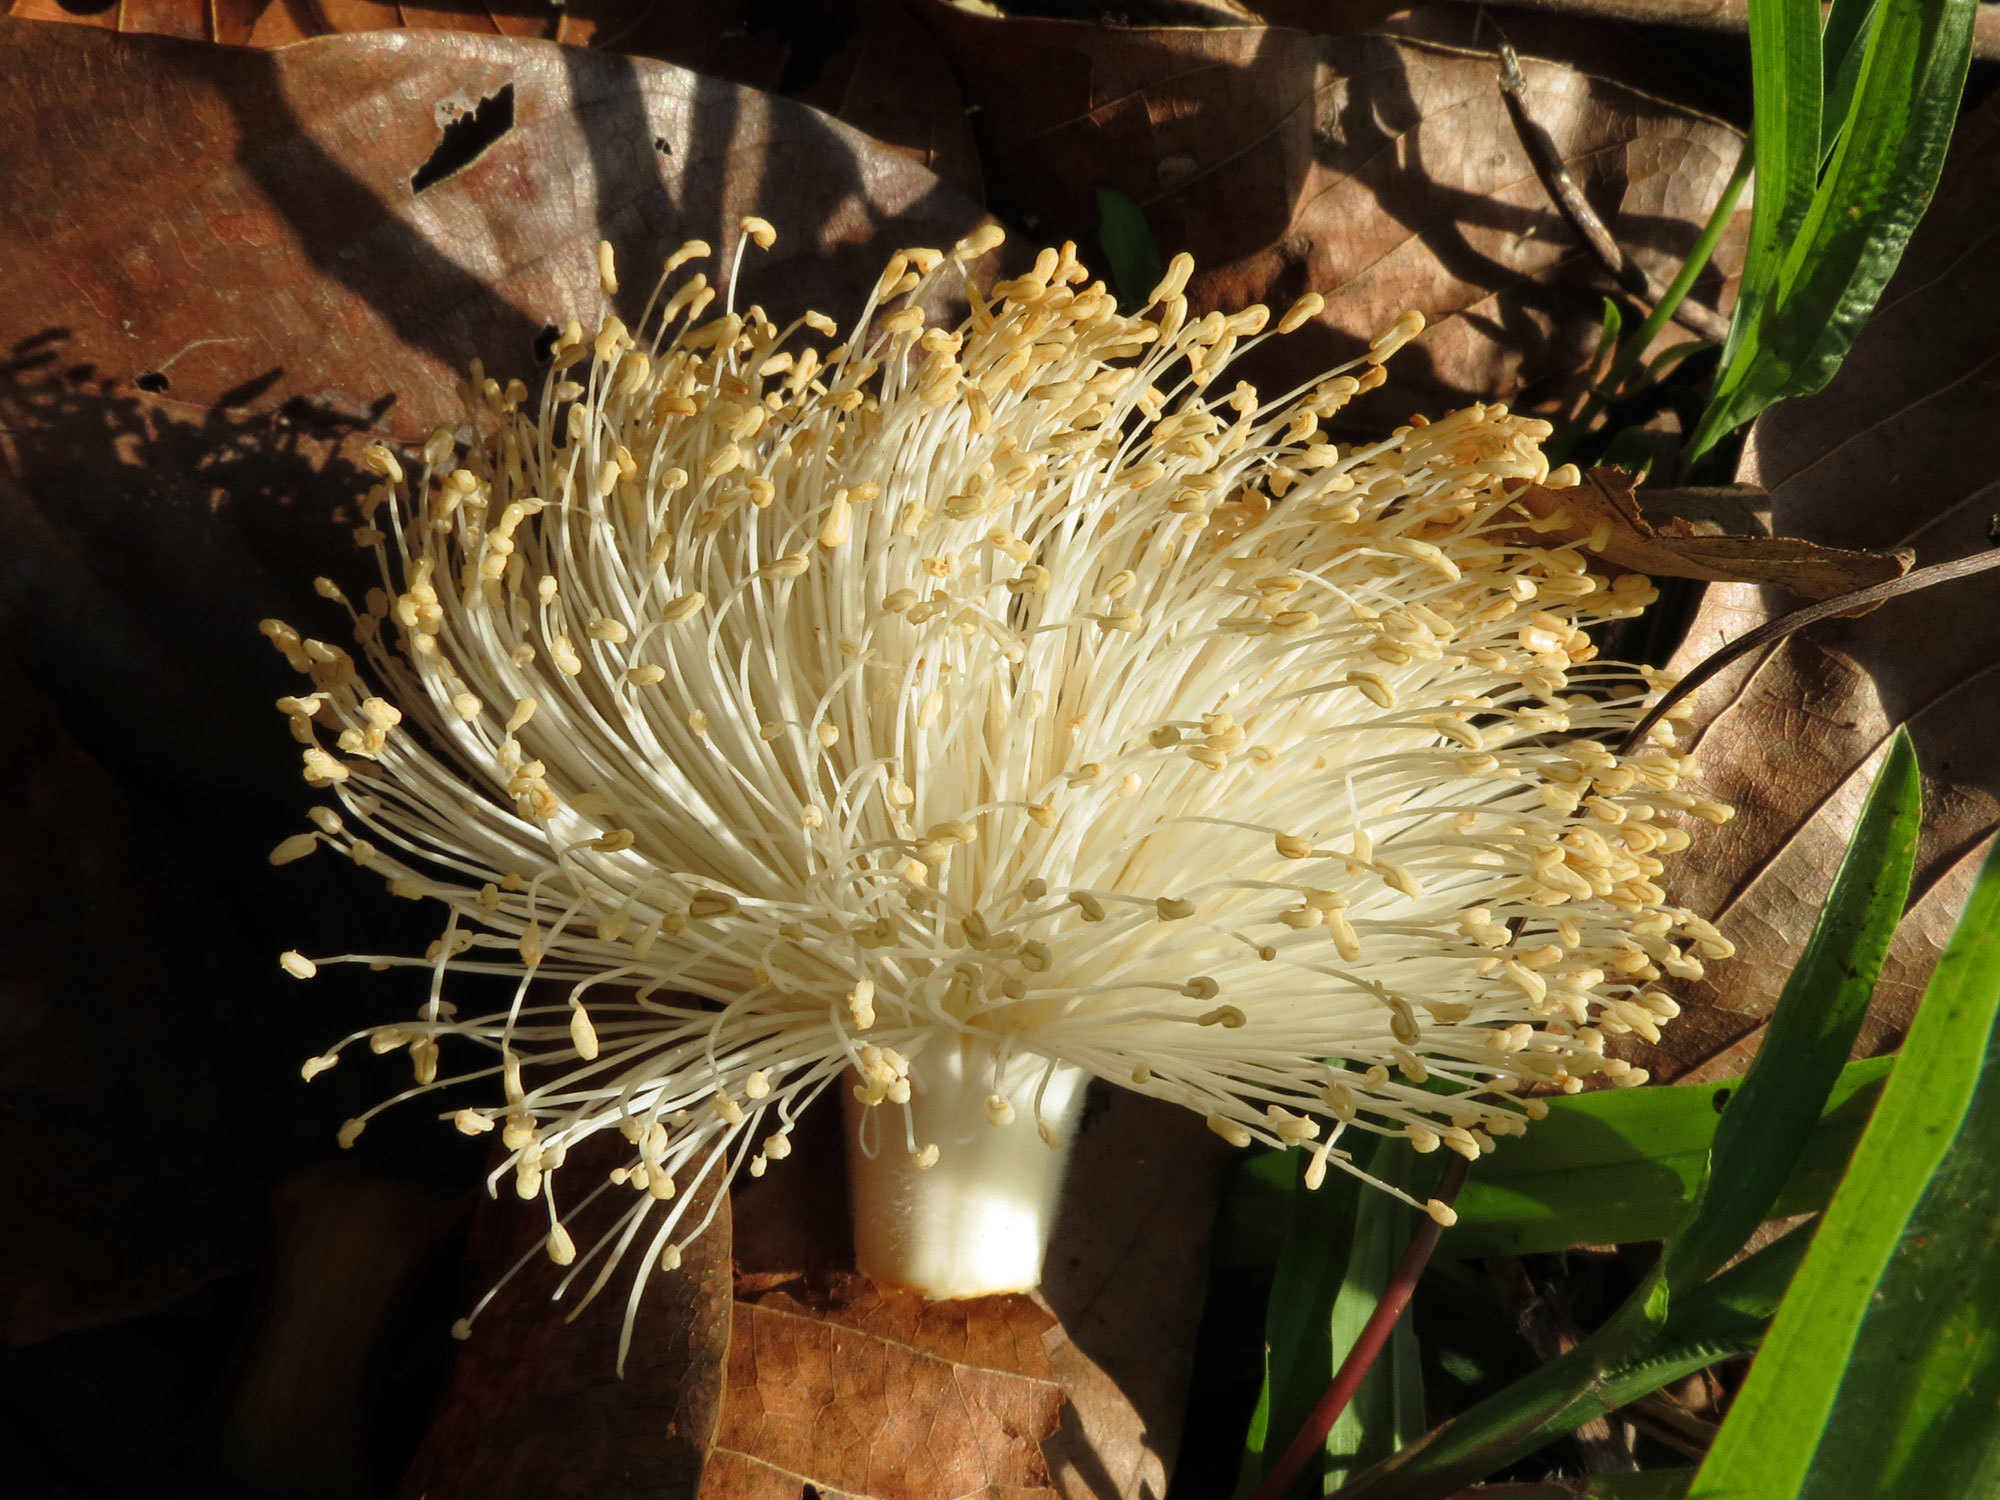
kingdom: Plantae
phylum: Tracheophyta
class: Magnoliopsida
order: Malvales
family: Malvaceae
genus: Pseudobombax
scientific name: Pseudobombax septenatum
